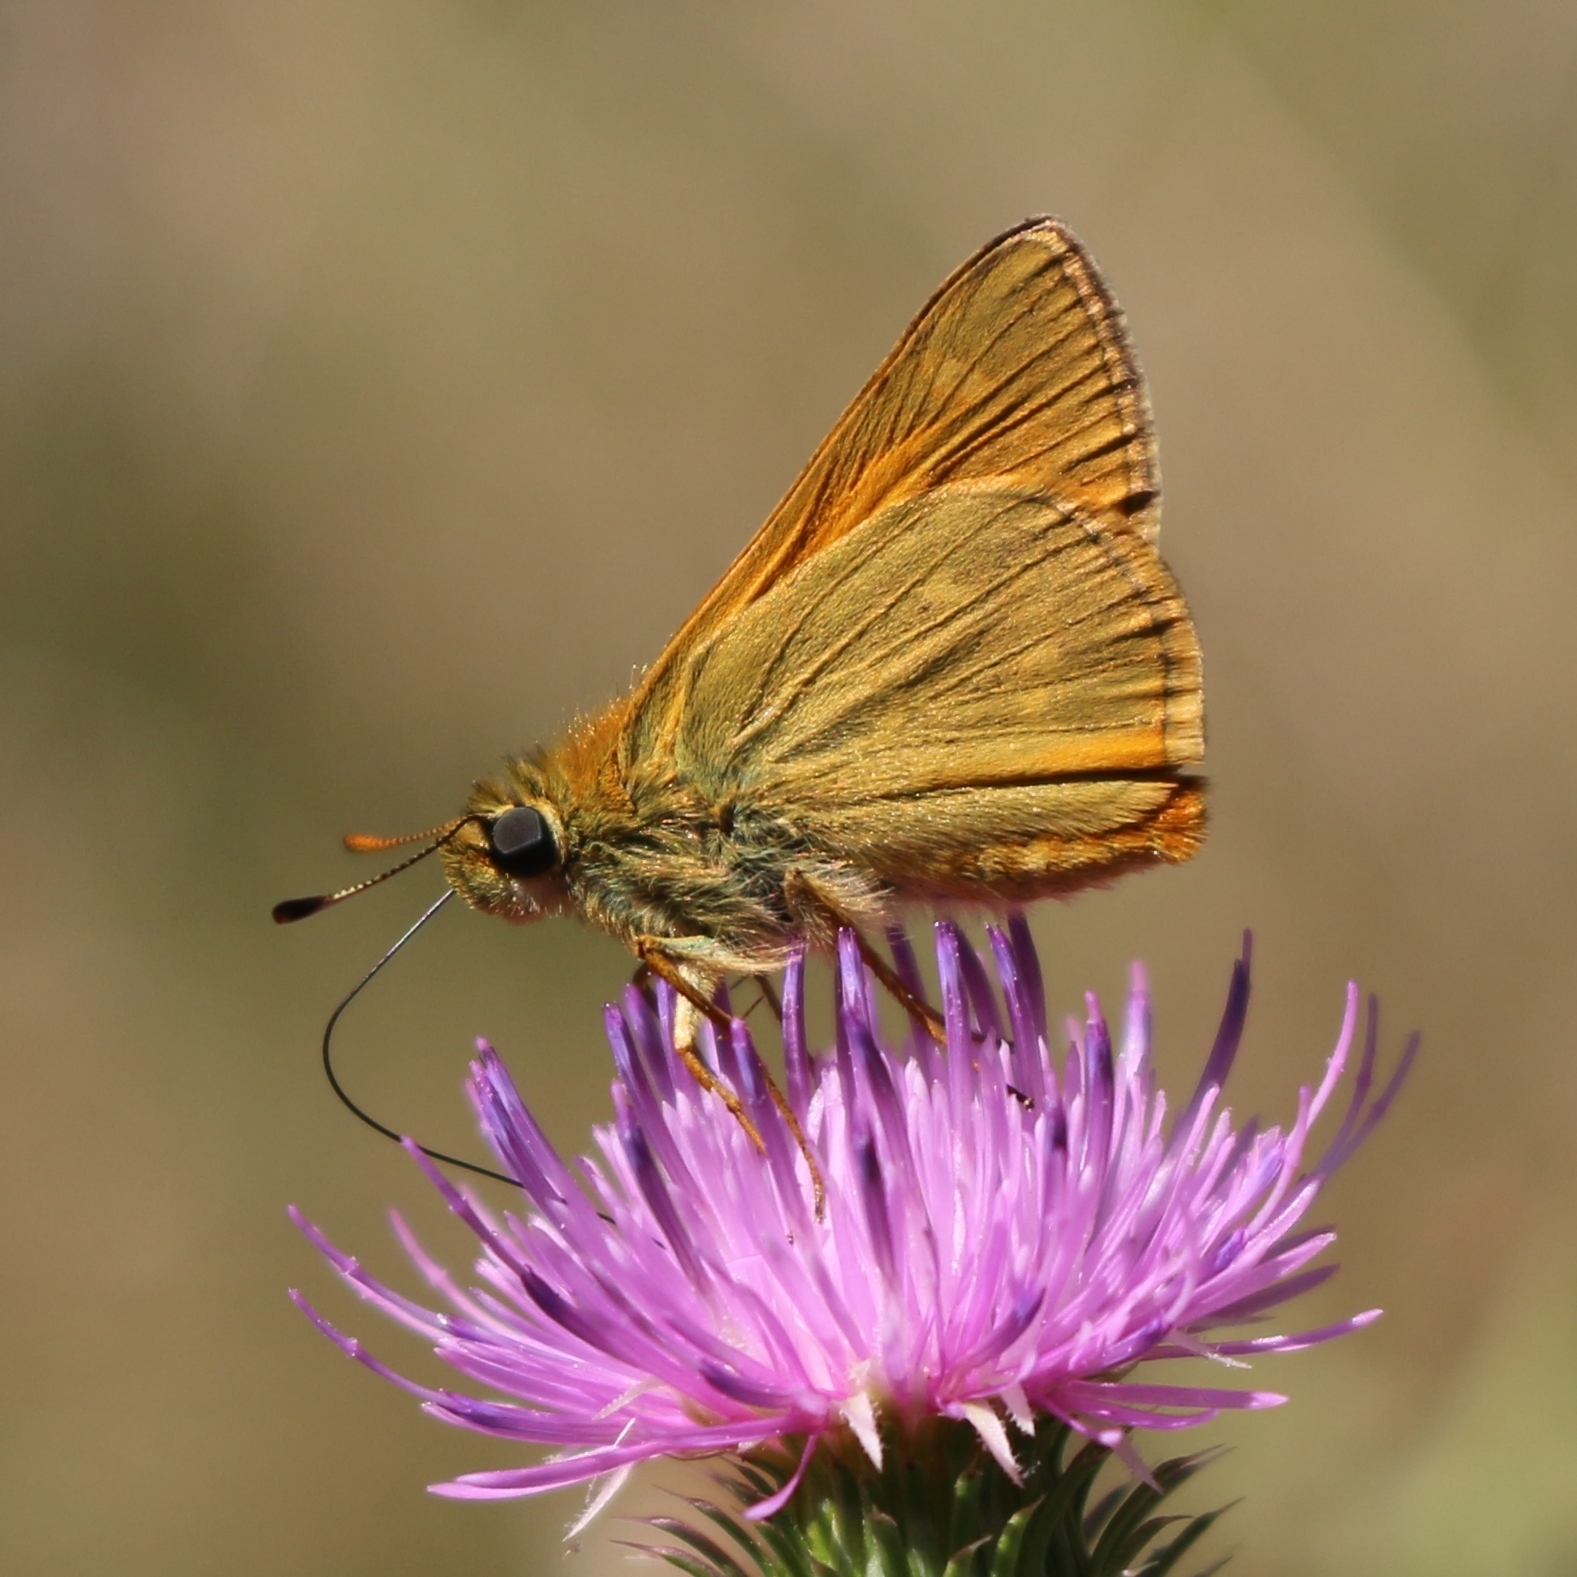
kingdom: Animalia
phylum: Arthropoda
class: Insecta
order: Lepidoptera
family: Hesperiidae
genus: Ochlodes
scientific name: Ochlodes venata
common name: Large skipper
